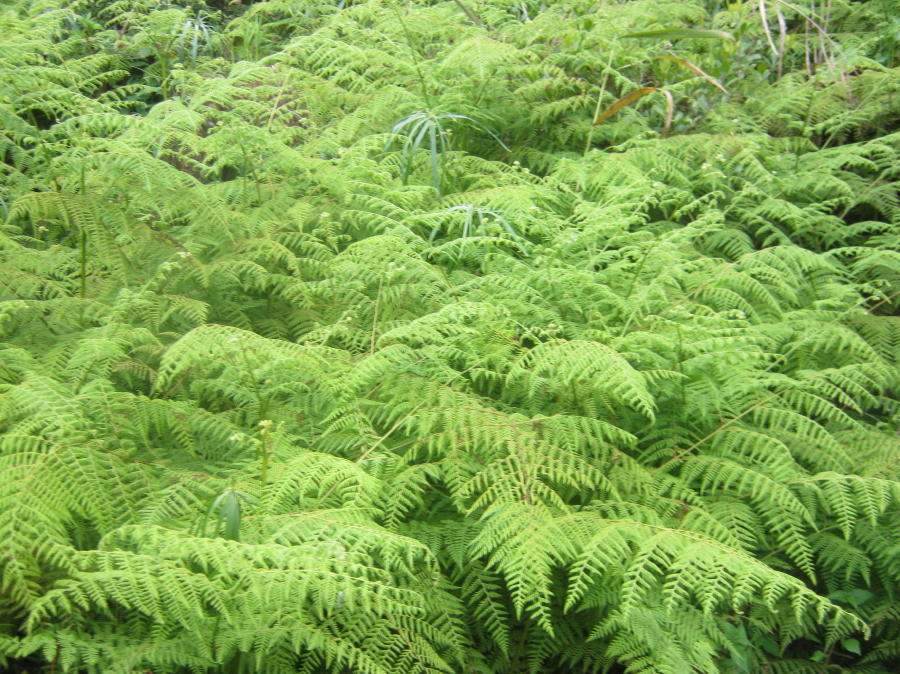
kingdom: Plantae
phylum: Tracheophyta
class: Polypodiopsida
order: Polypodiales
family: Dennstaedtiaceae
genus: Hypolepis
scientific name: Hypolepis sparsisora
